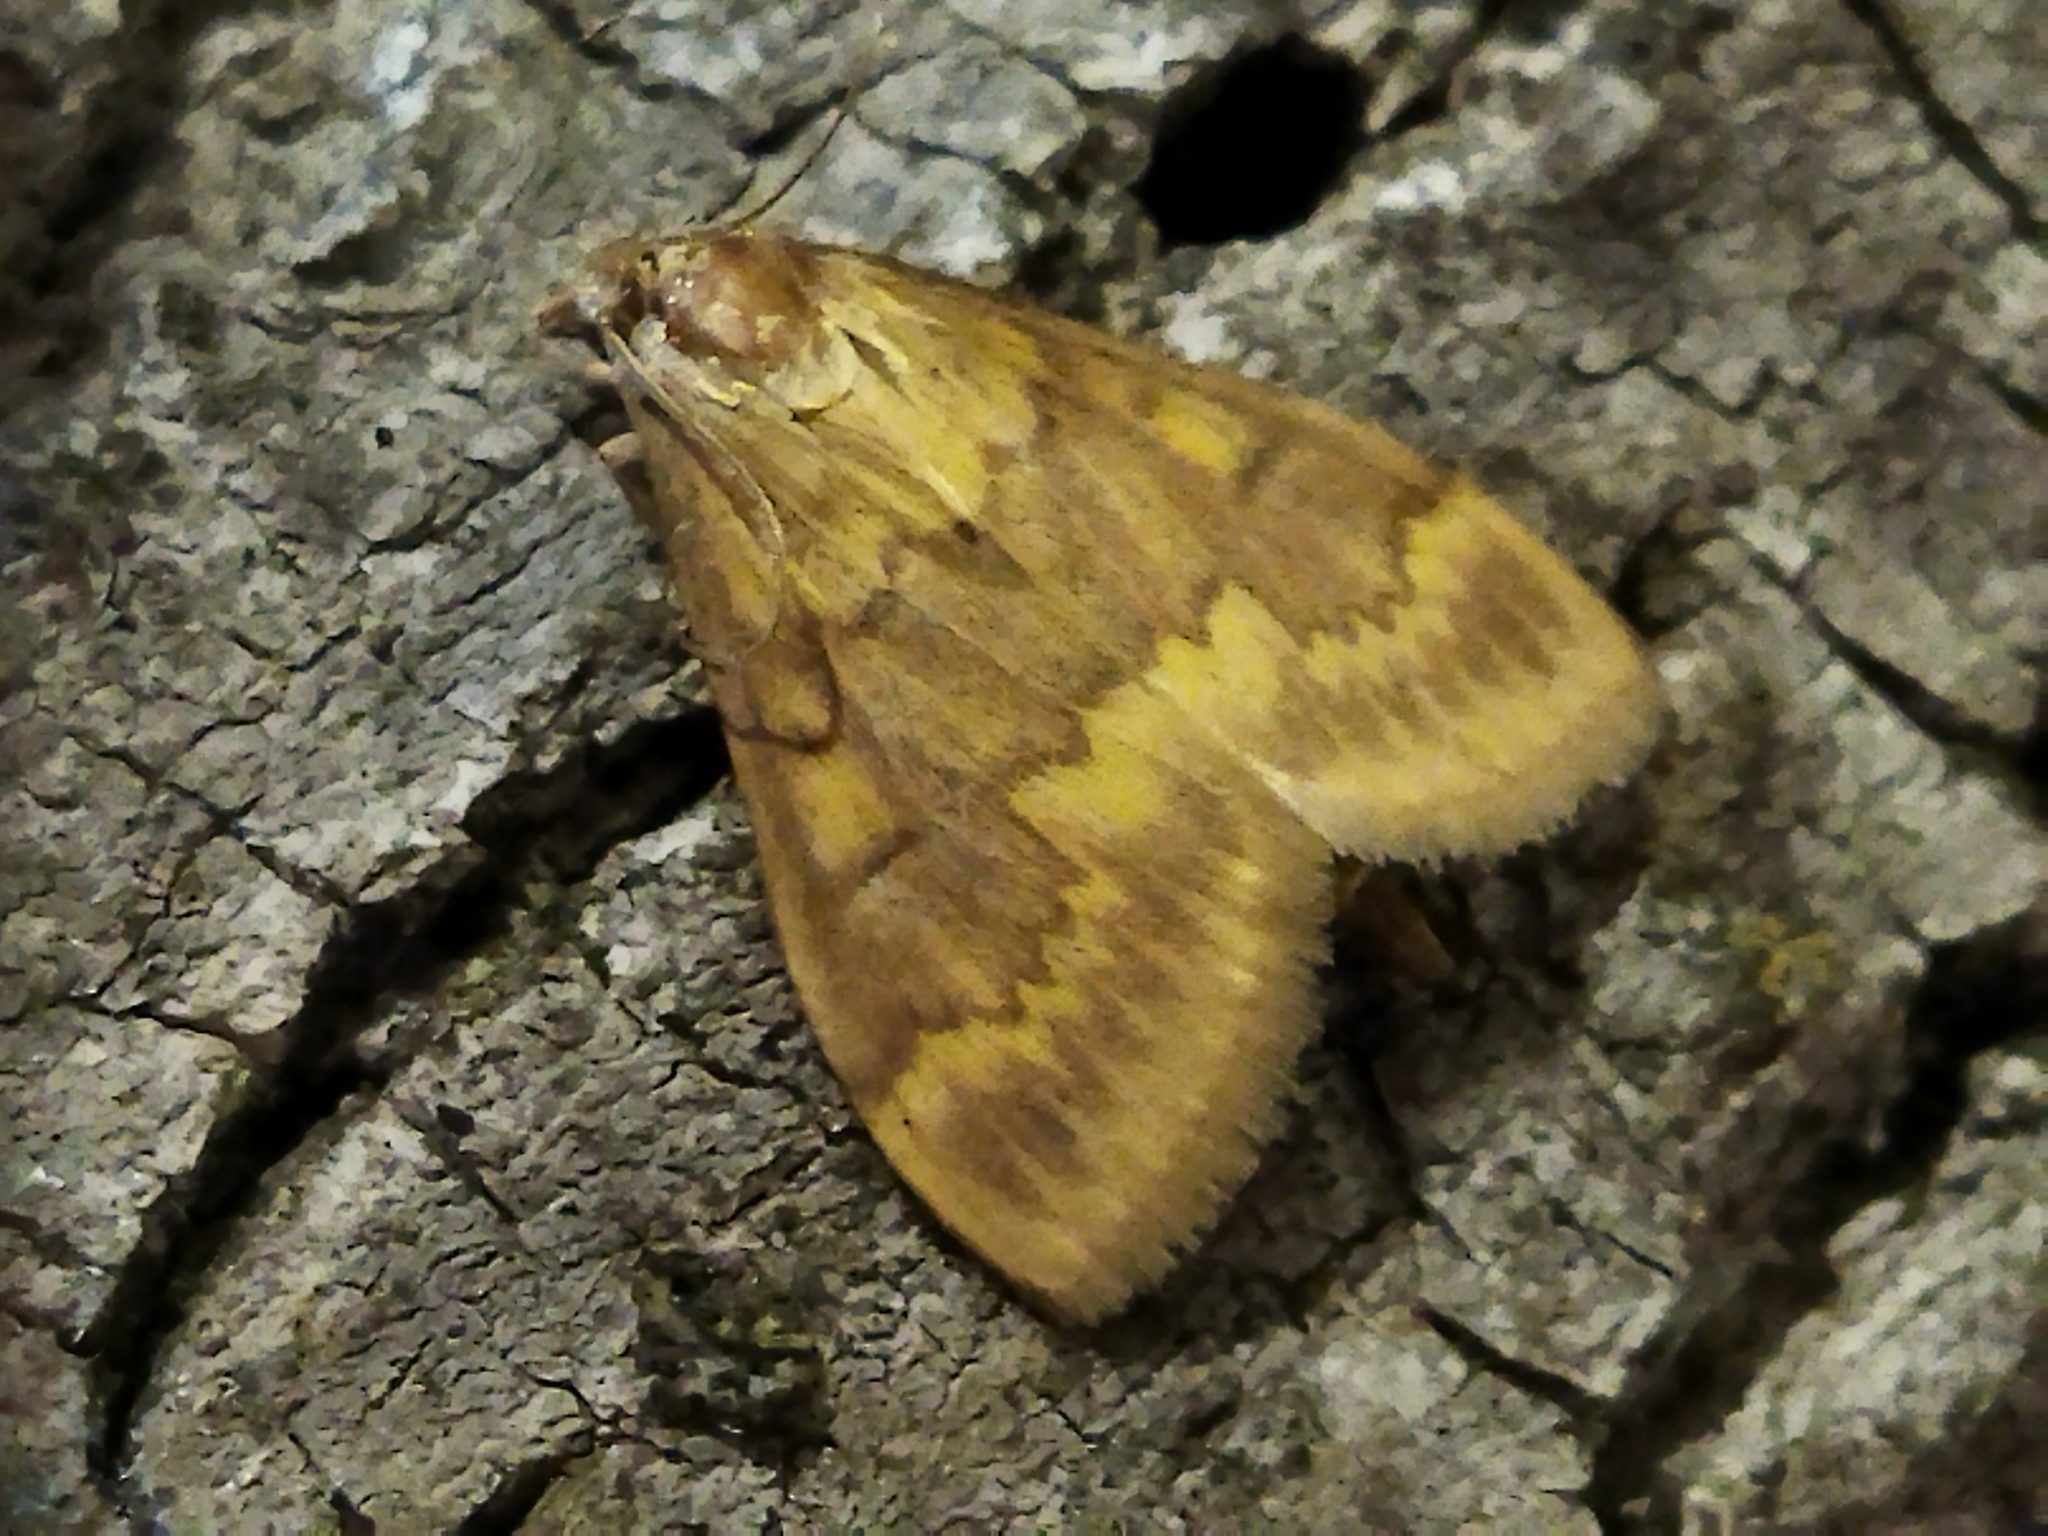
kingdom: Animalia
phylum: Arthropoda
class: Insecta
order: Lepidoptera
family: Crambidae
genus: Ostrinia
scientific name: Ostrinia nubilalis
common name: European corn borer
